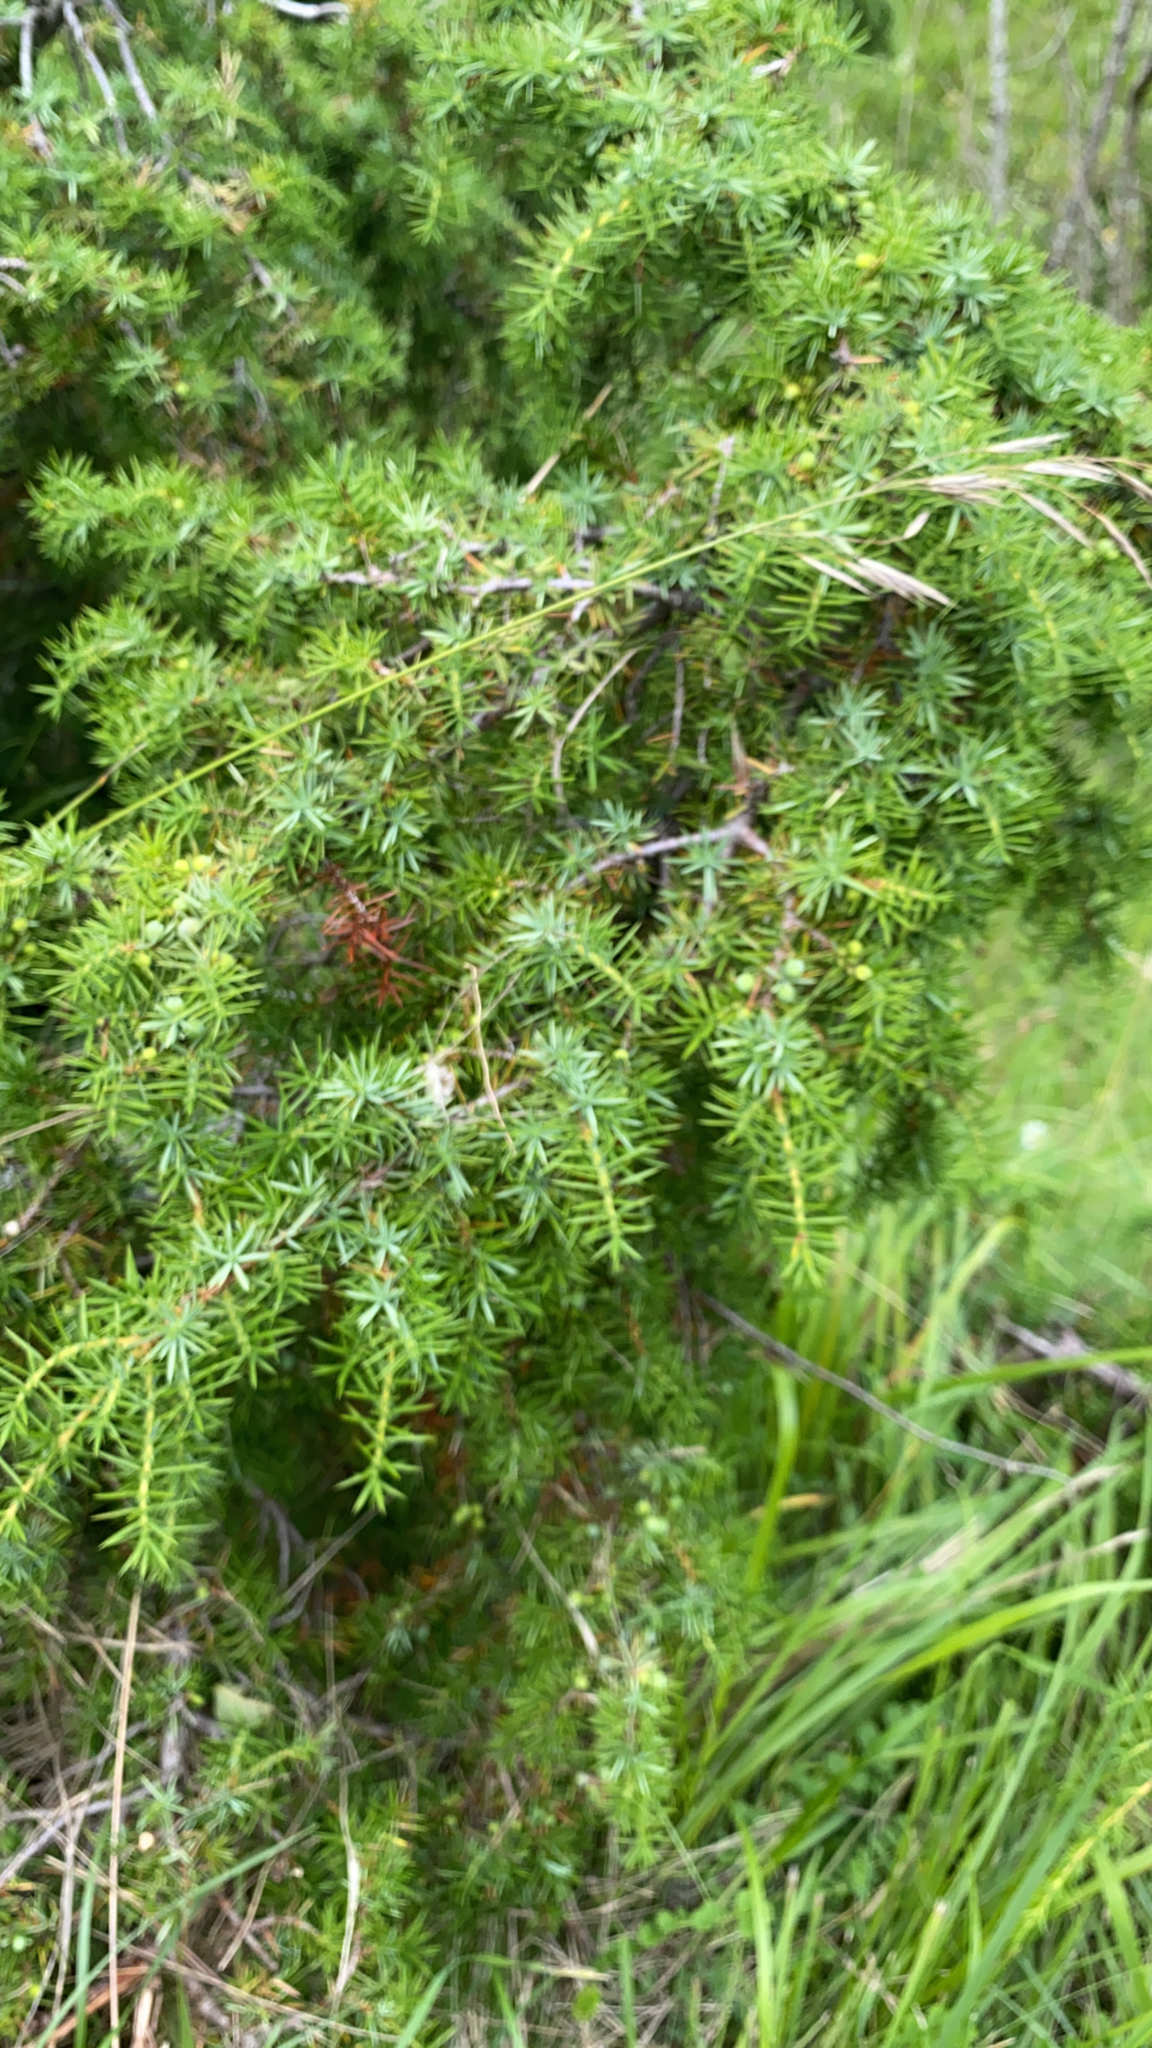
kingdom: Plantae
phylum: Tracheophyta
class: Pinopsida
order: Pinales
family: Cupressaceae
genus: Juniperus
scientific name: Juniperus communis
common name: Common juniper
